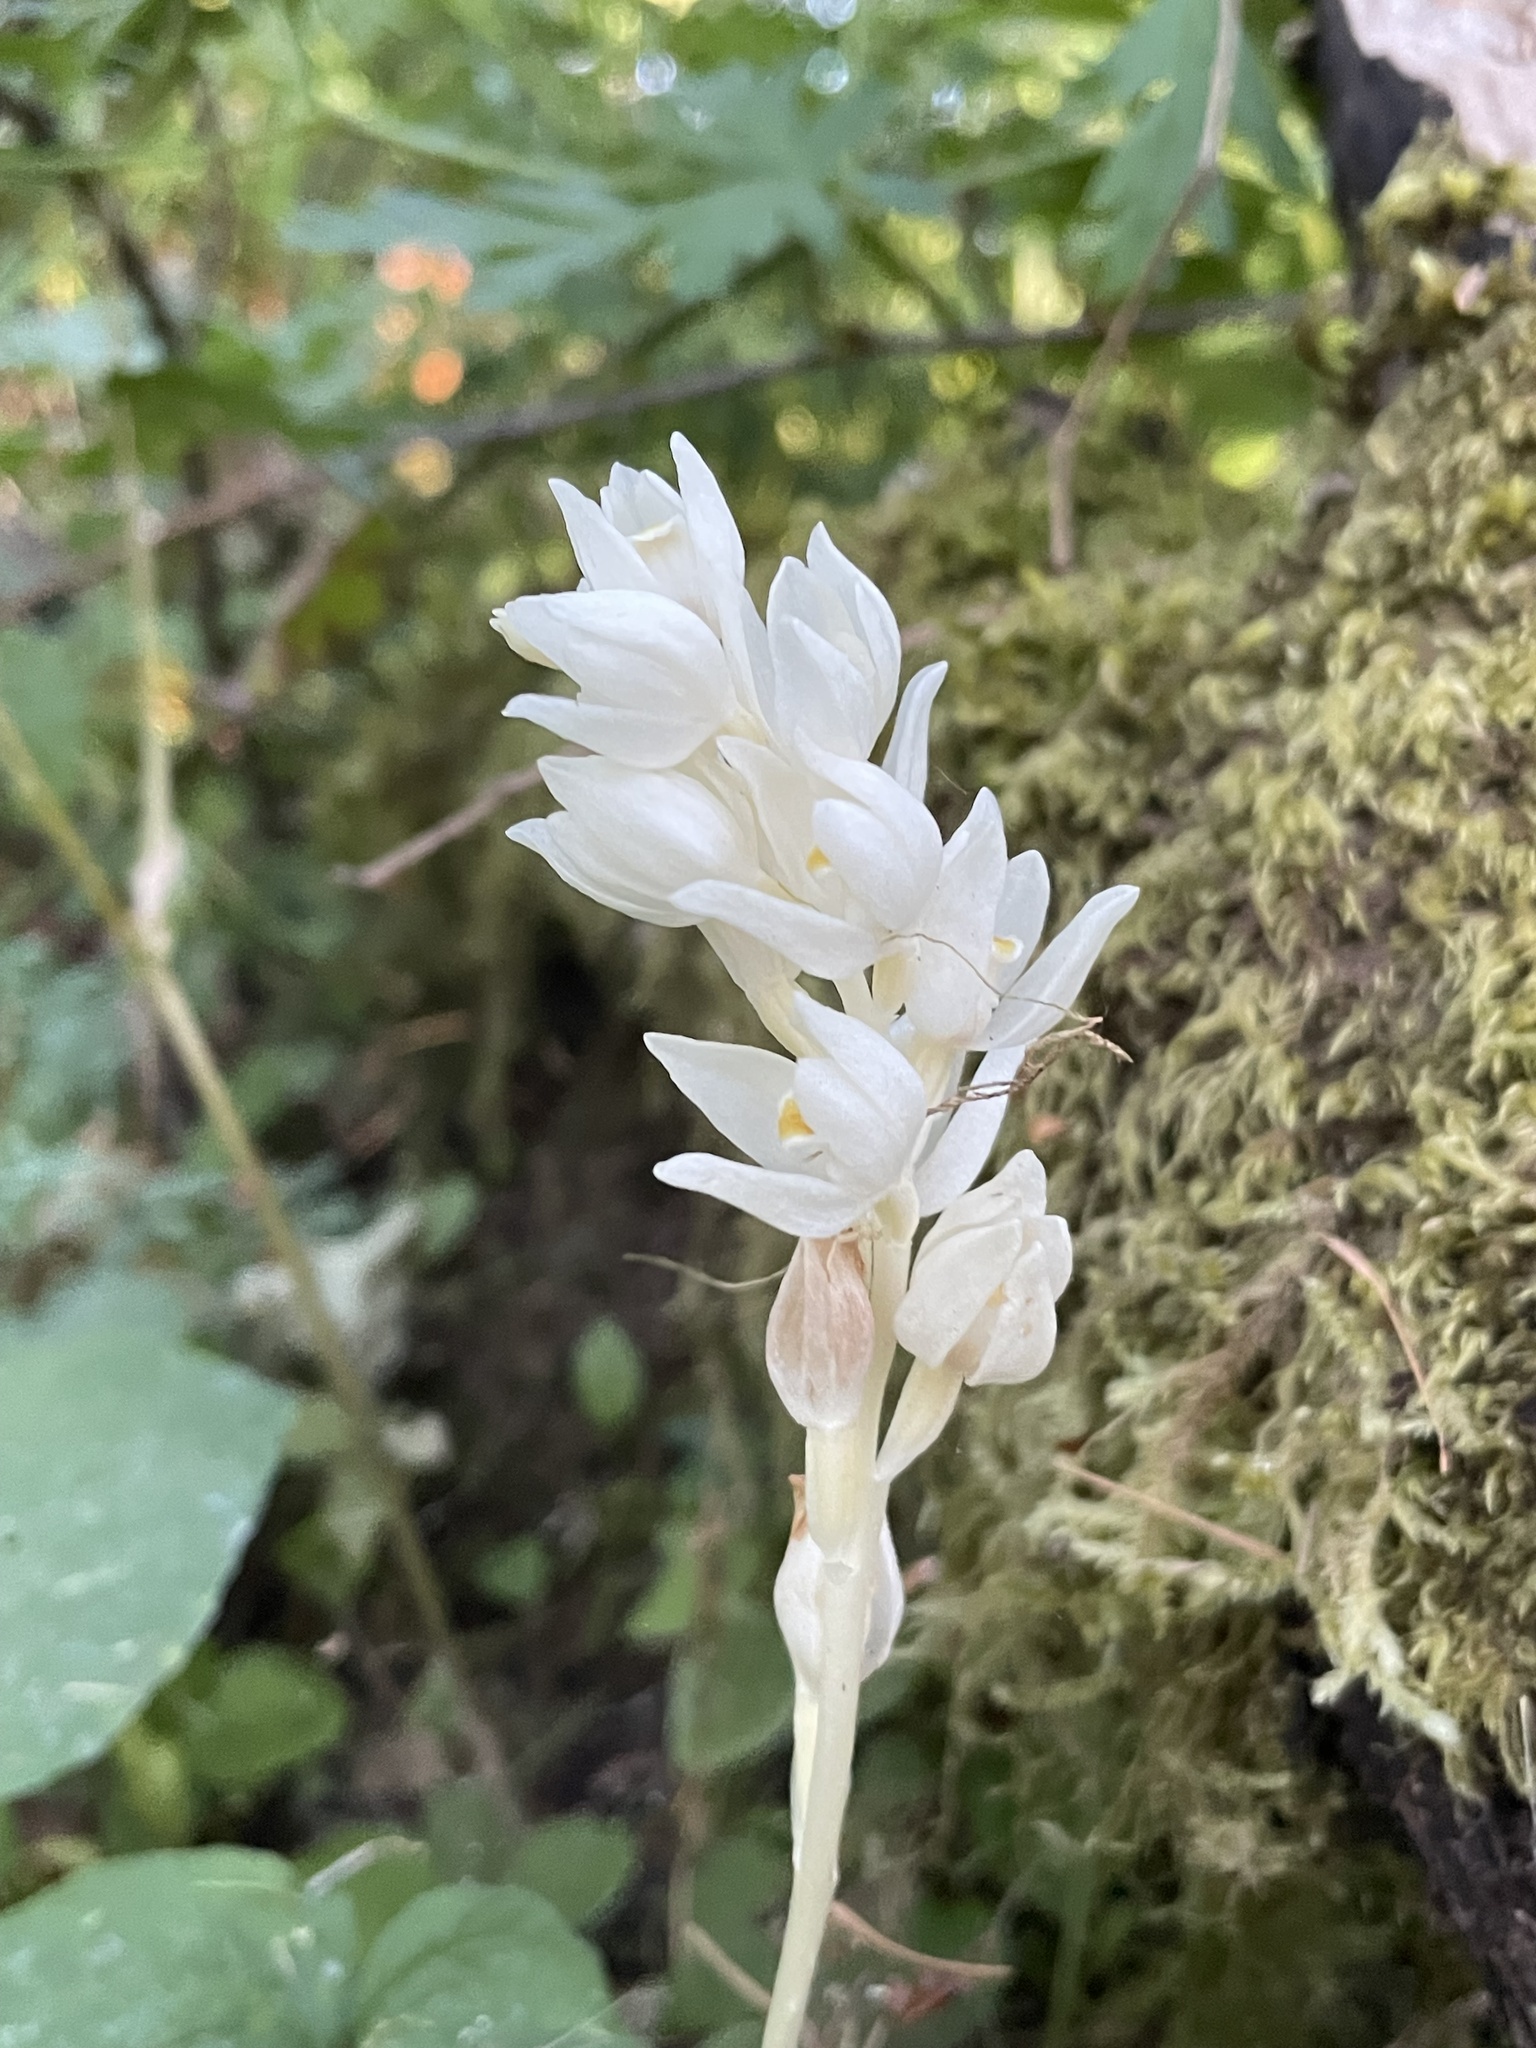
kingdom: Plantae
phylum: Tracheophyta
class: Liliopsida
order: Asparagales
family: Orchidaceae
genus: Cephalanthera
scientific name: Cephalanthera austiniae
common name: Phantom orchid
